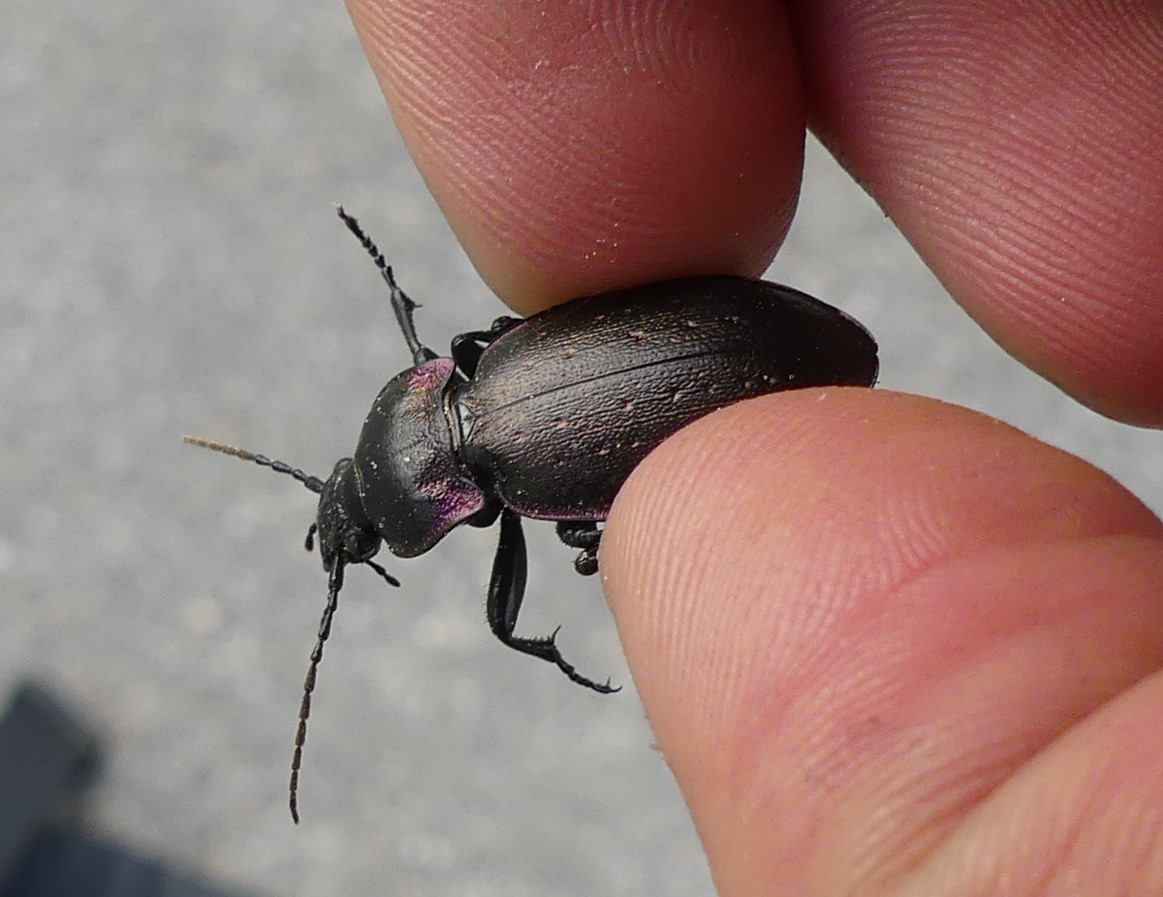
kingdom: Animalia
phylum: Arthropoda
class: Insecta
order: Coleoptera
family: Carabidae
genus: Carabus
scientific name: Carabus nemoralis
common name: European ground beetle
